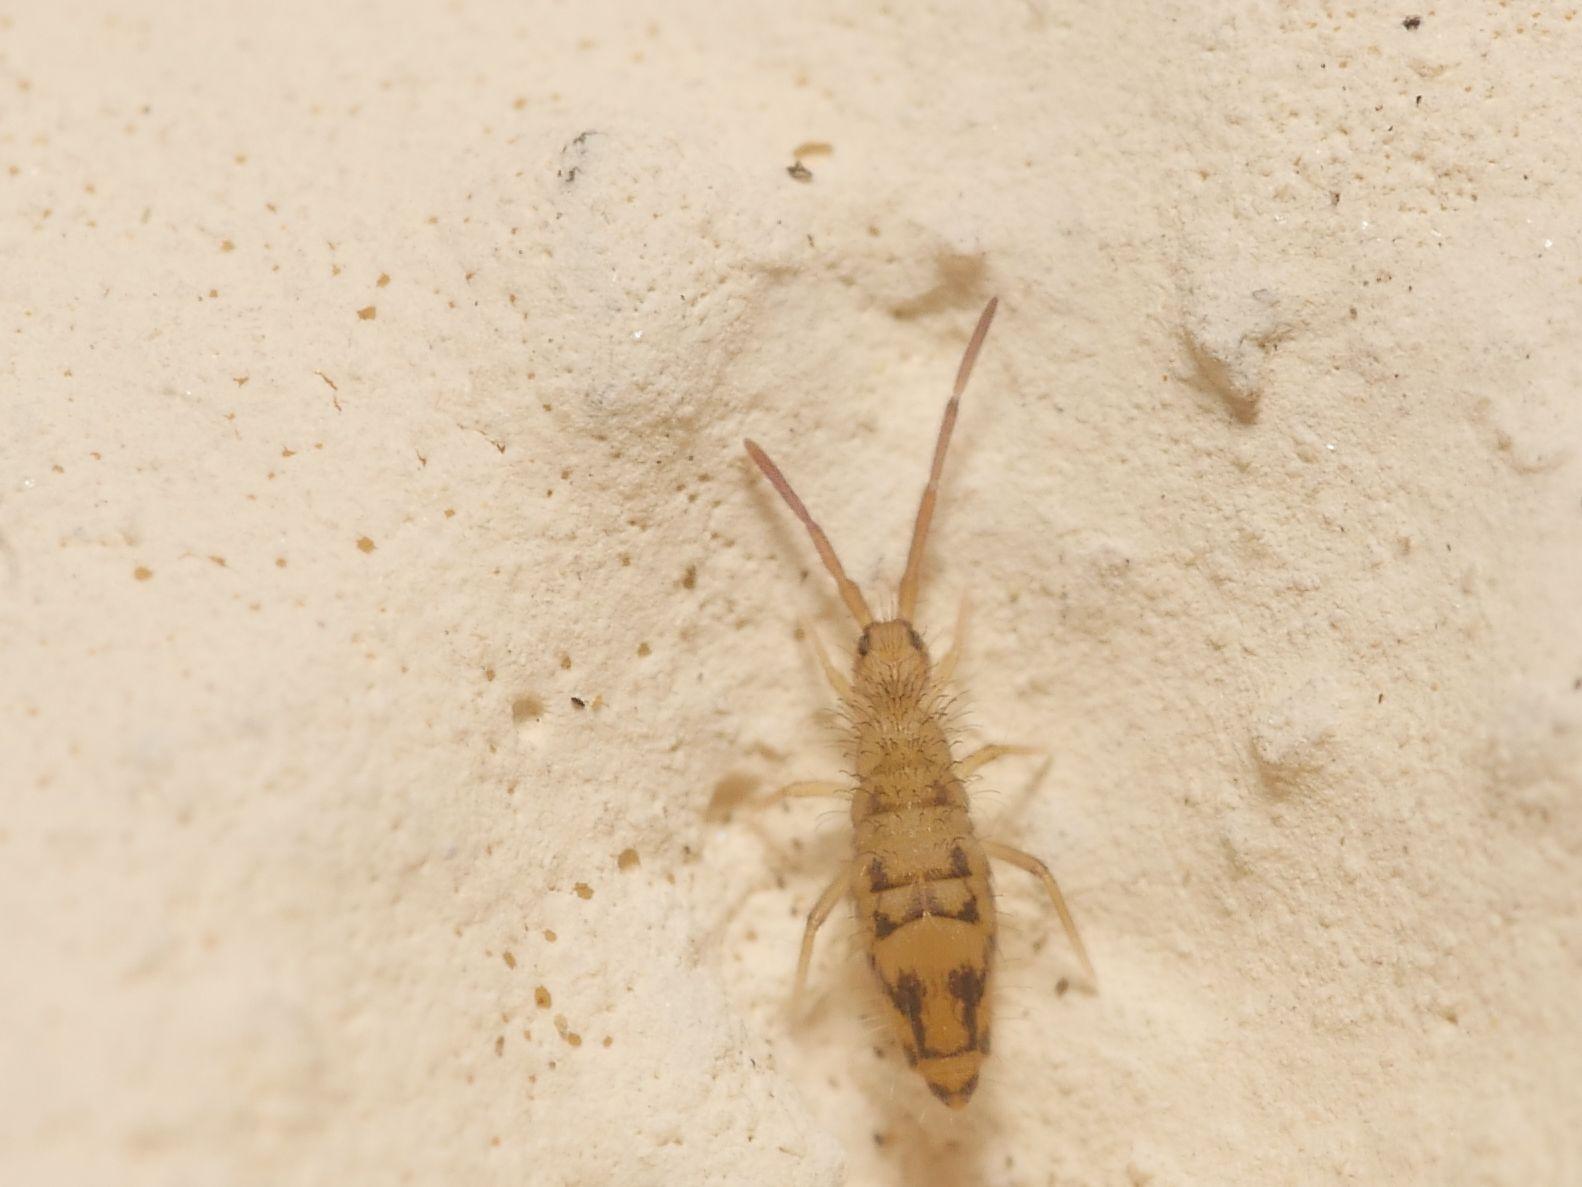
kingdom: Animalia
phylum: Arthropoda
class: Collembola
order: Entomobryomorpha
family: Entomobryidae
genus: Entomobrya
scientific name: Entomobrya nivalis
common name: Cosmopolitan springtail
